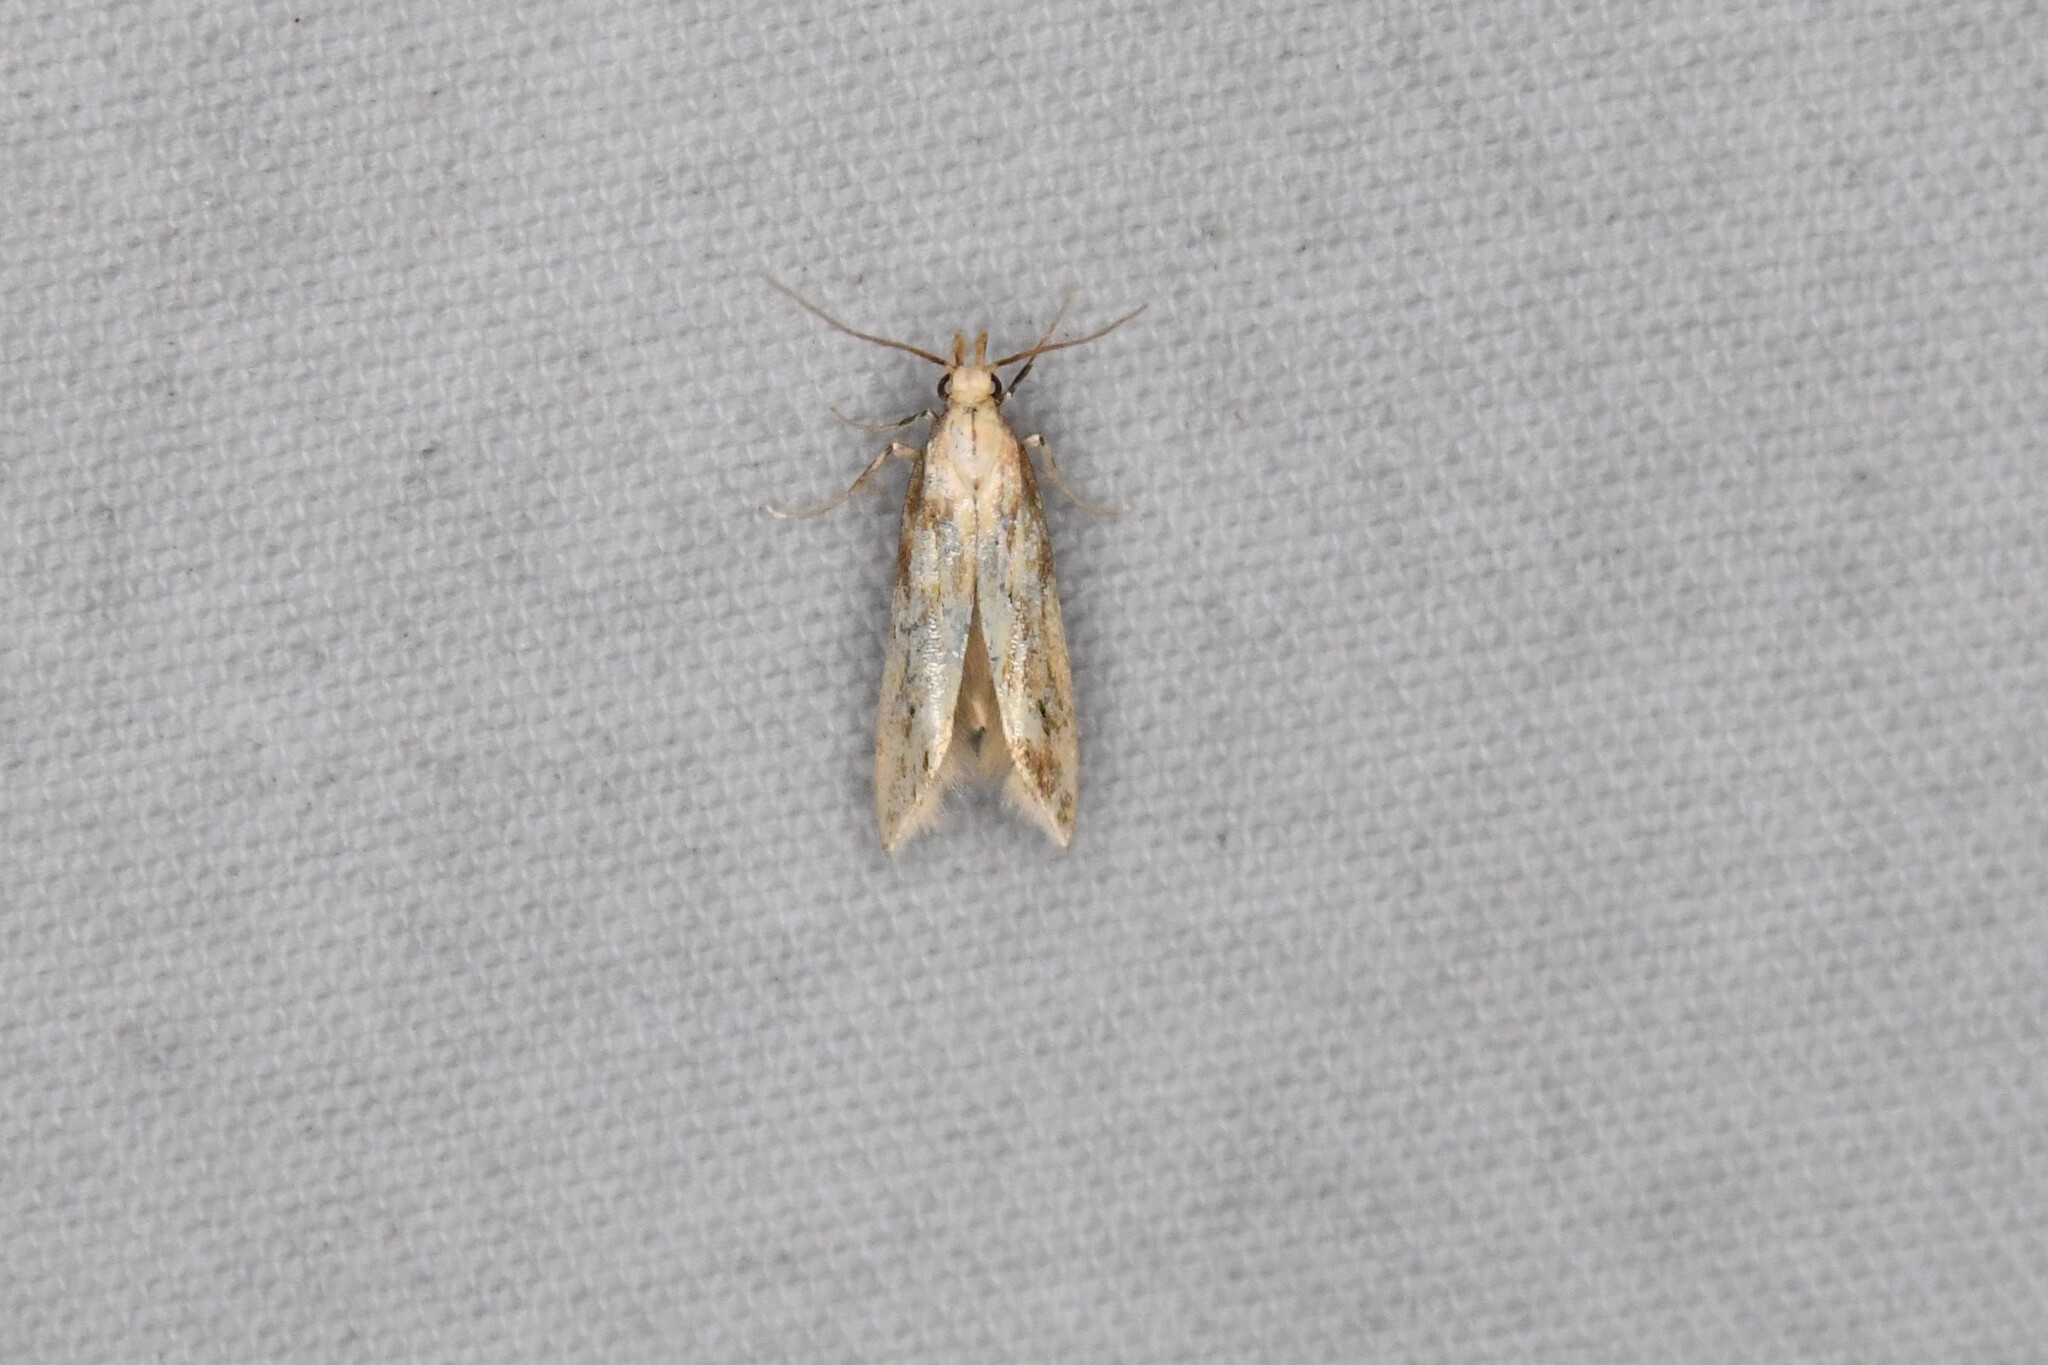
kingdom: Animalia
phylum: Arthropoda
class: Insecta
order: Lepidoptera
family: Gelechiidae
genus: Metzneria
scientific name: Metzneria lappella
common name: Burdock neb
